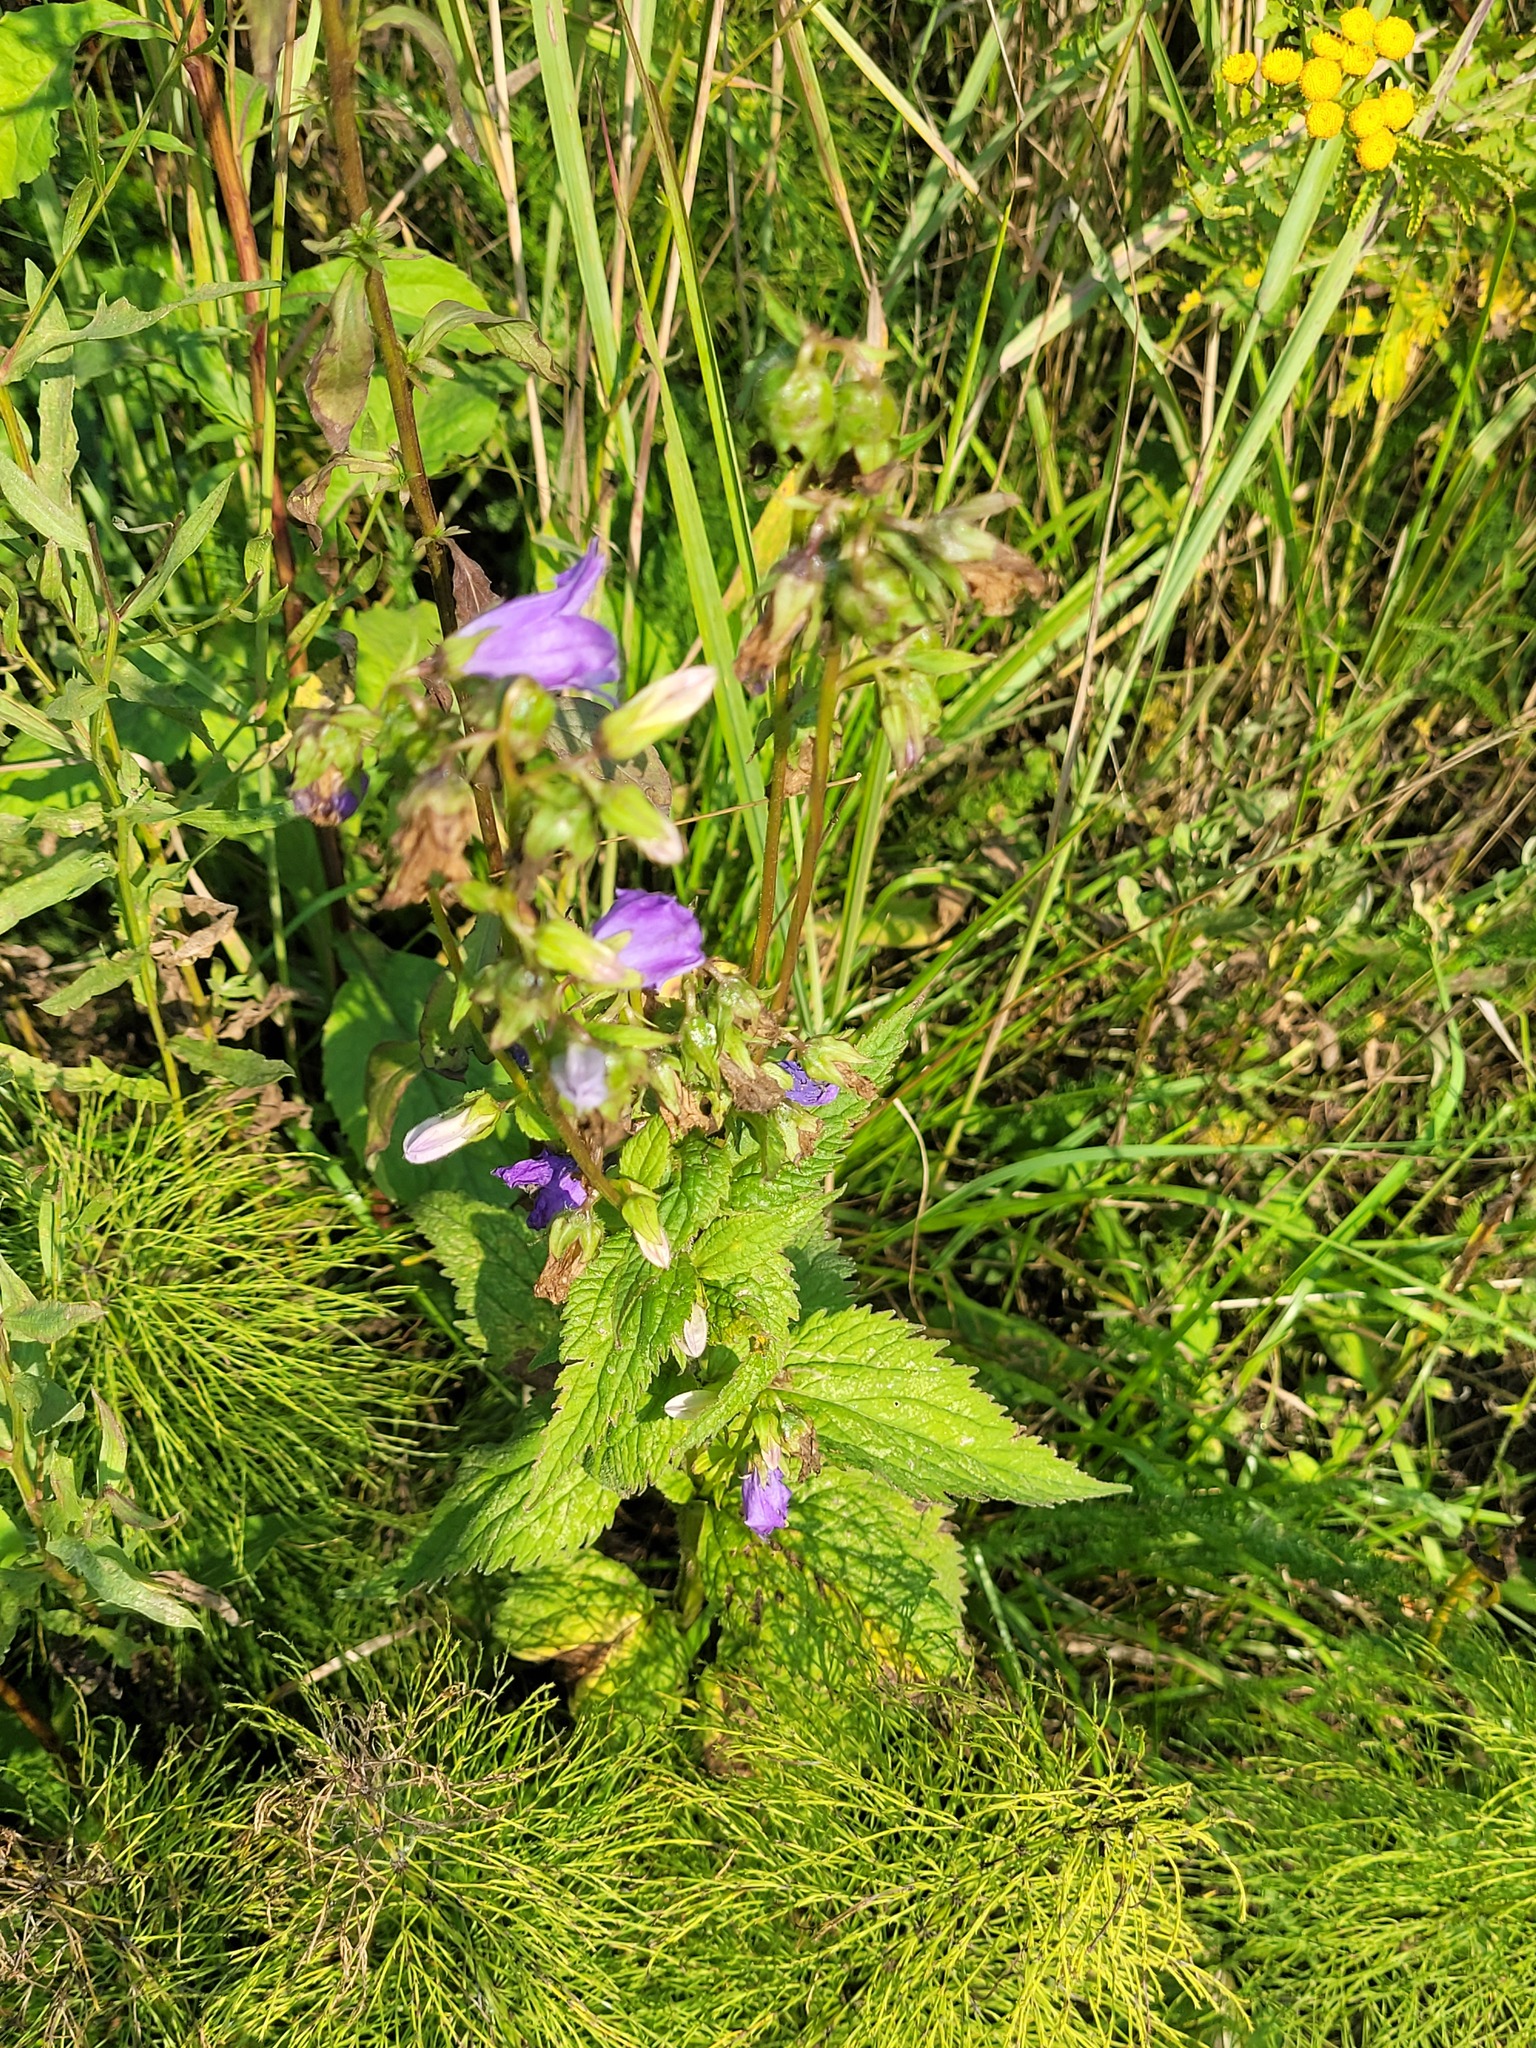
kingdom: Plantae
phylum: Tracheophyta
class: Magnoliopsida
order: Asterales
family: Campanulaceae
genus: Campanula
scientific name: Campanula trachelium
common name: Nettle-leaved bellflower
